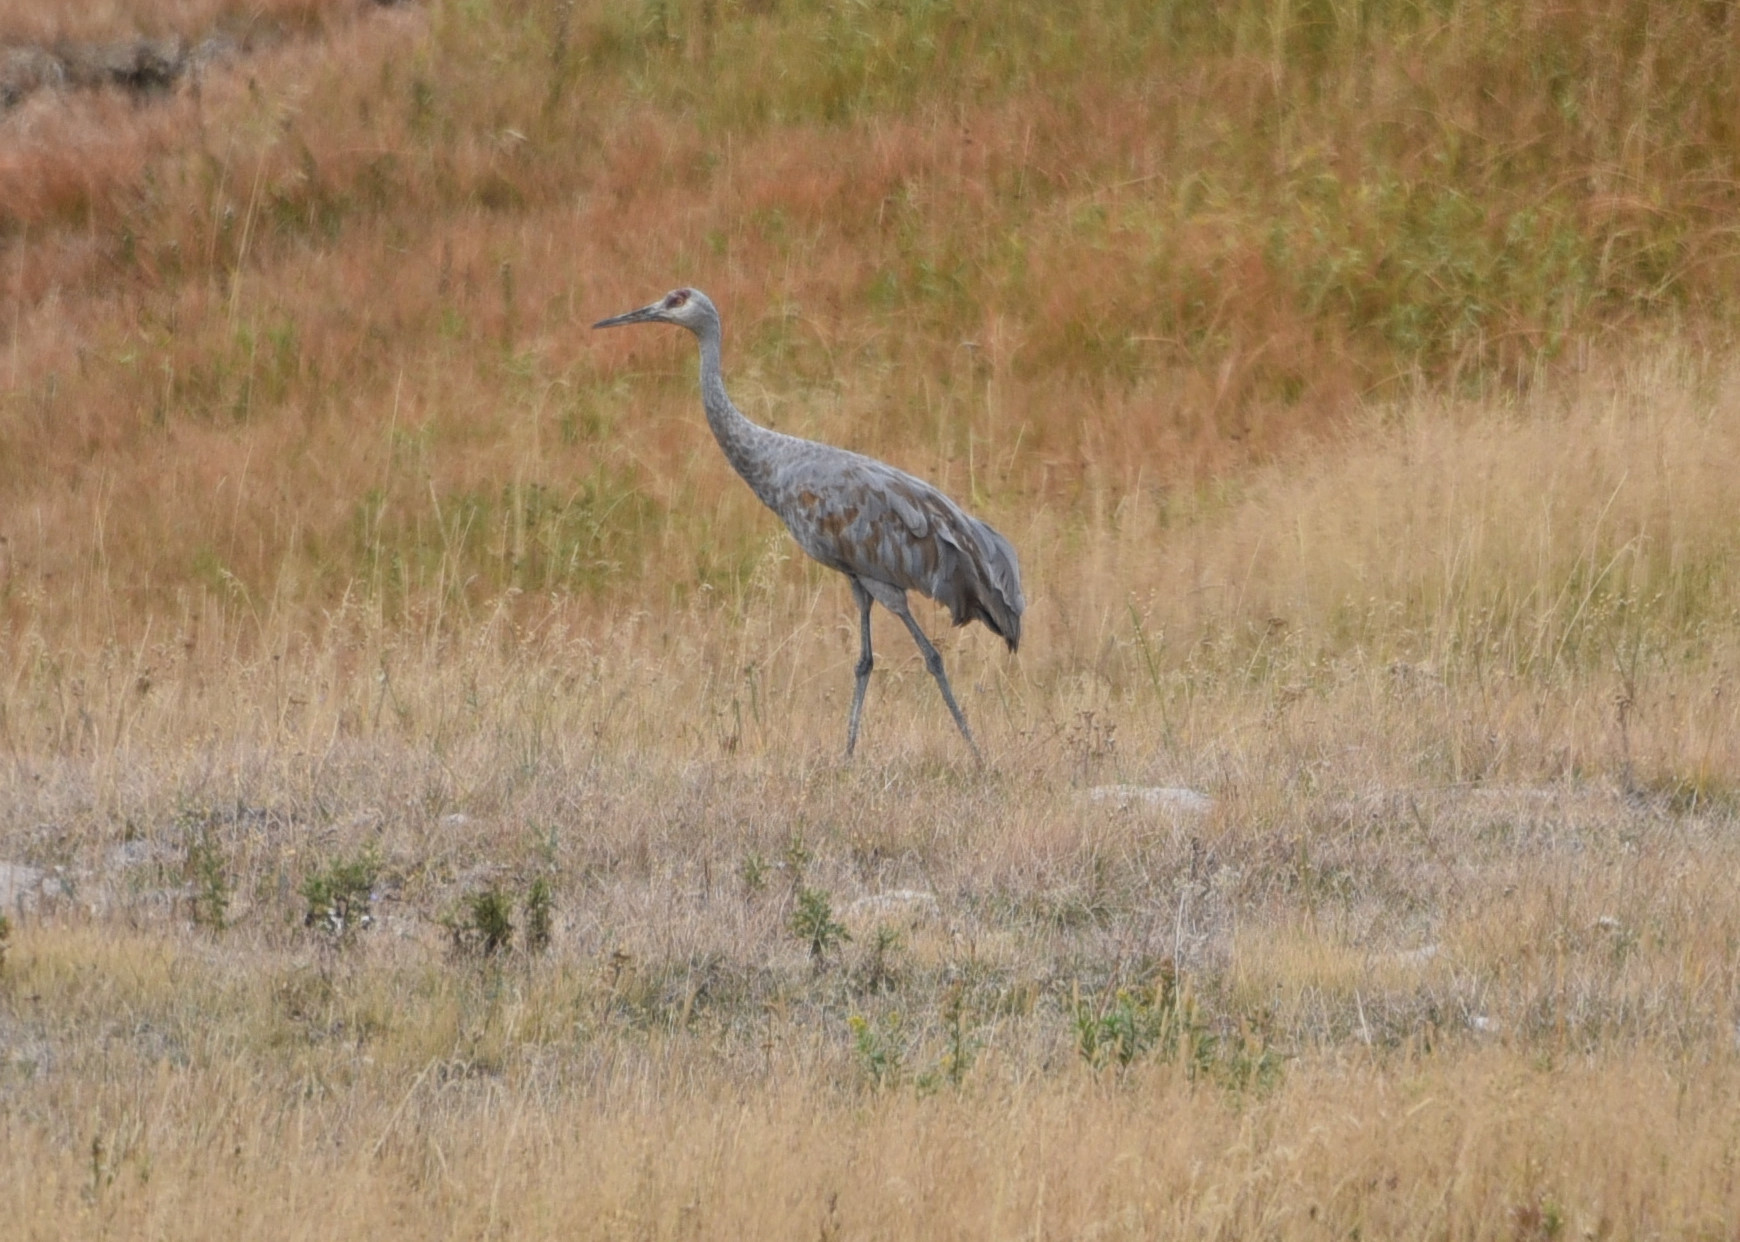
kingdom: Animalia
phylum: Chordata
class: Aves
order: Gruiformes
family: Gruidae
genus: Grus
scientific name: Grus canadensis
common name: Sandhill crane
